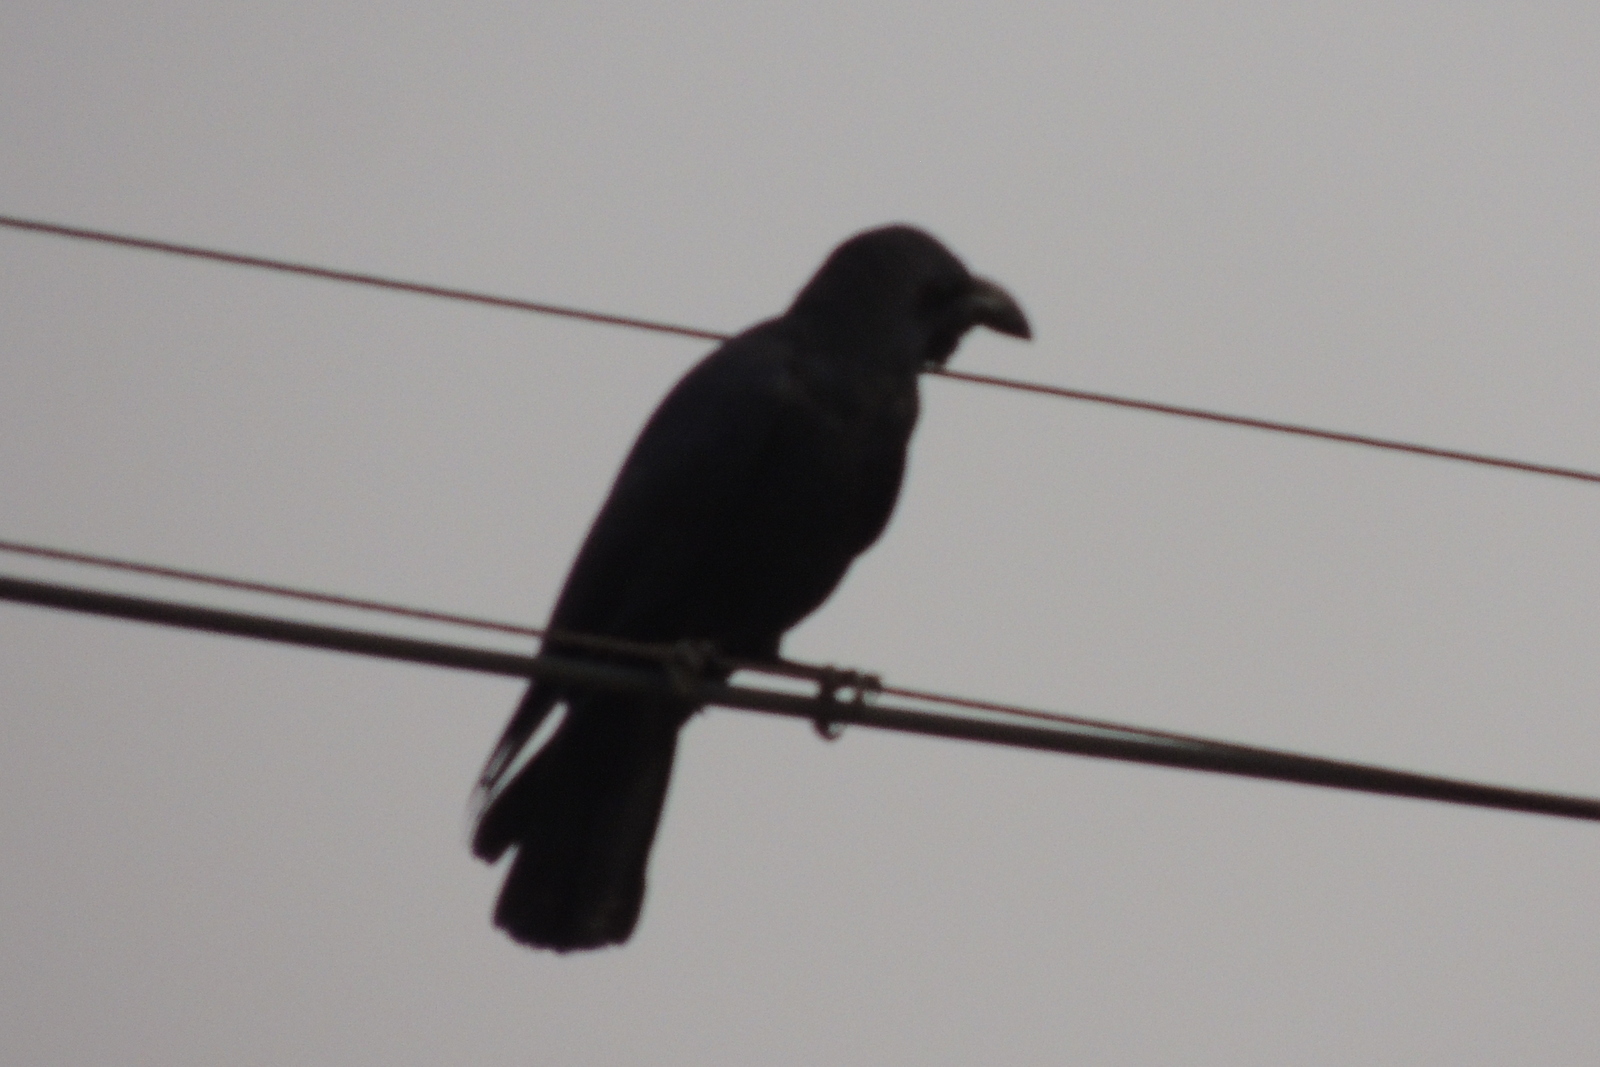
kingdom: Animalia
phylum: Chordata
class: Aves
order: Passeriformes
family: Corvidae
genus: Corvus
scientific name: Corvus macrorhynchos
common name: Large-billed crow
